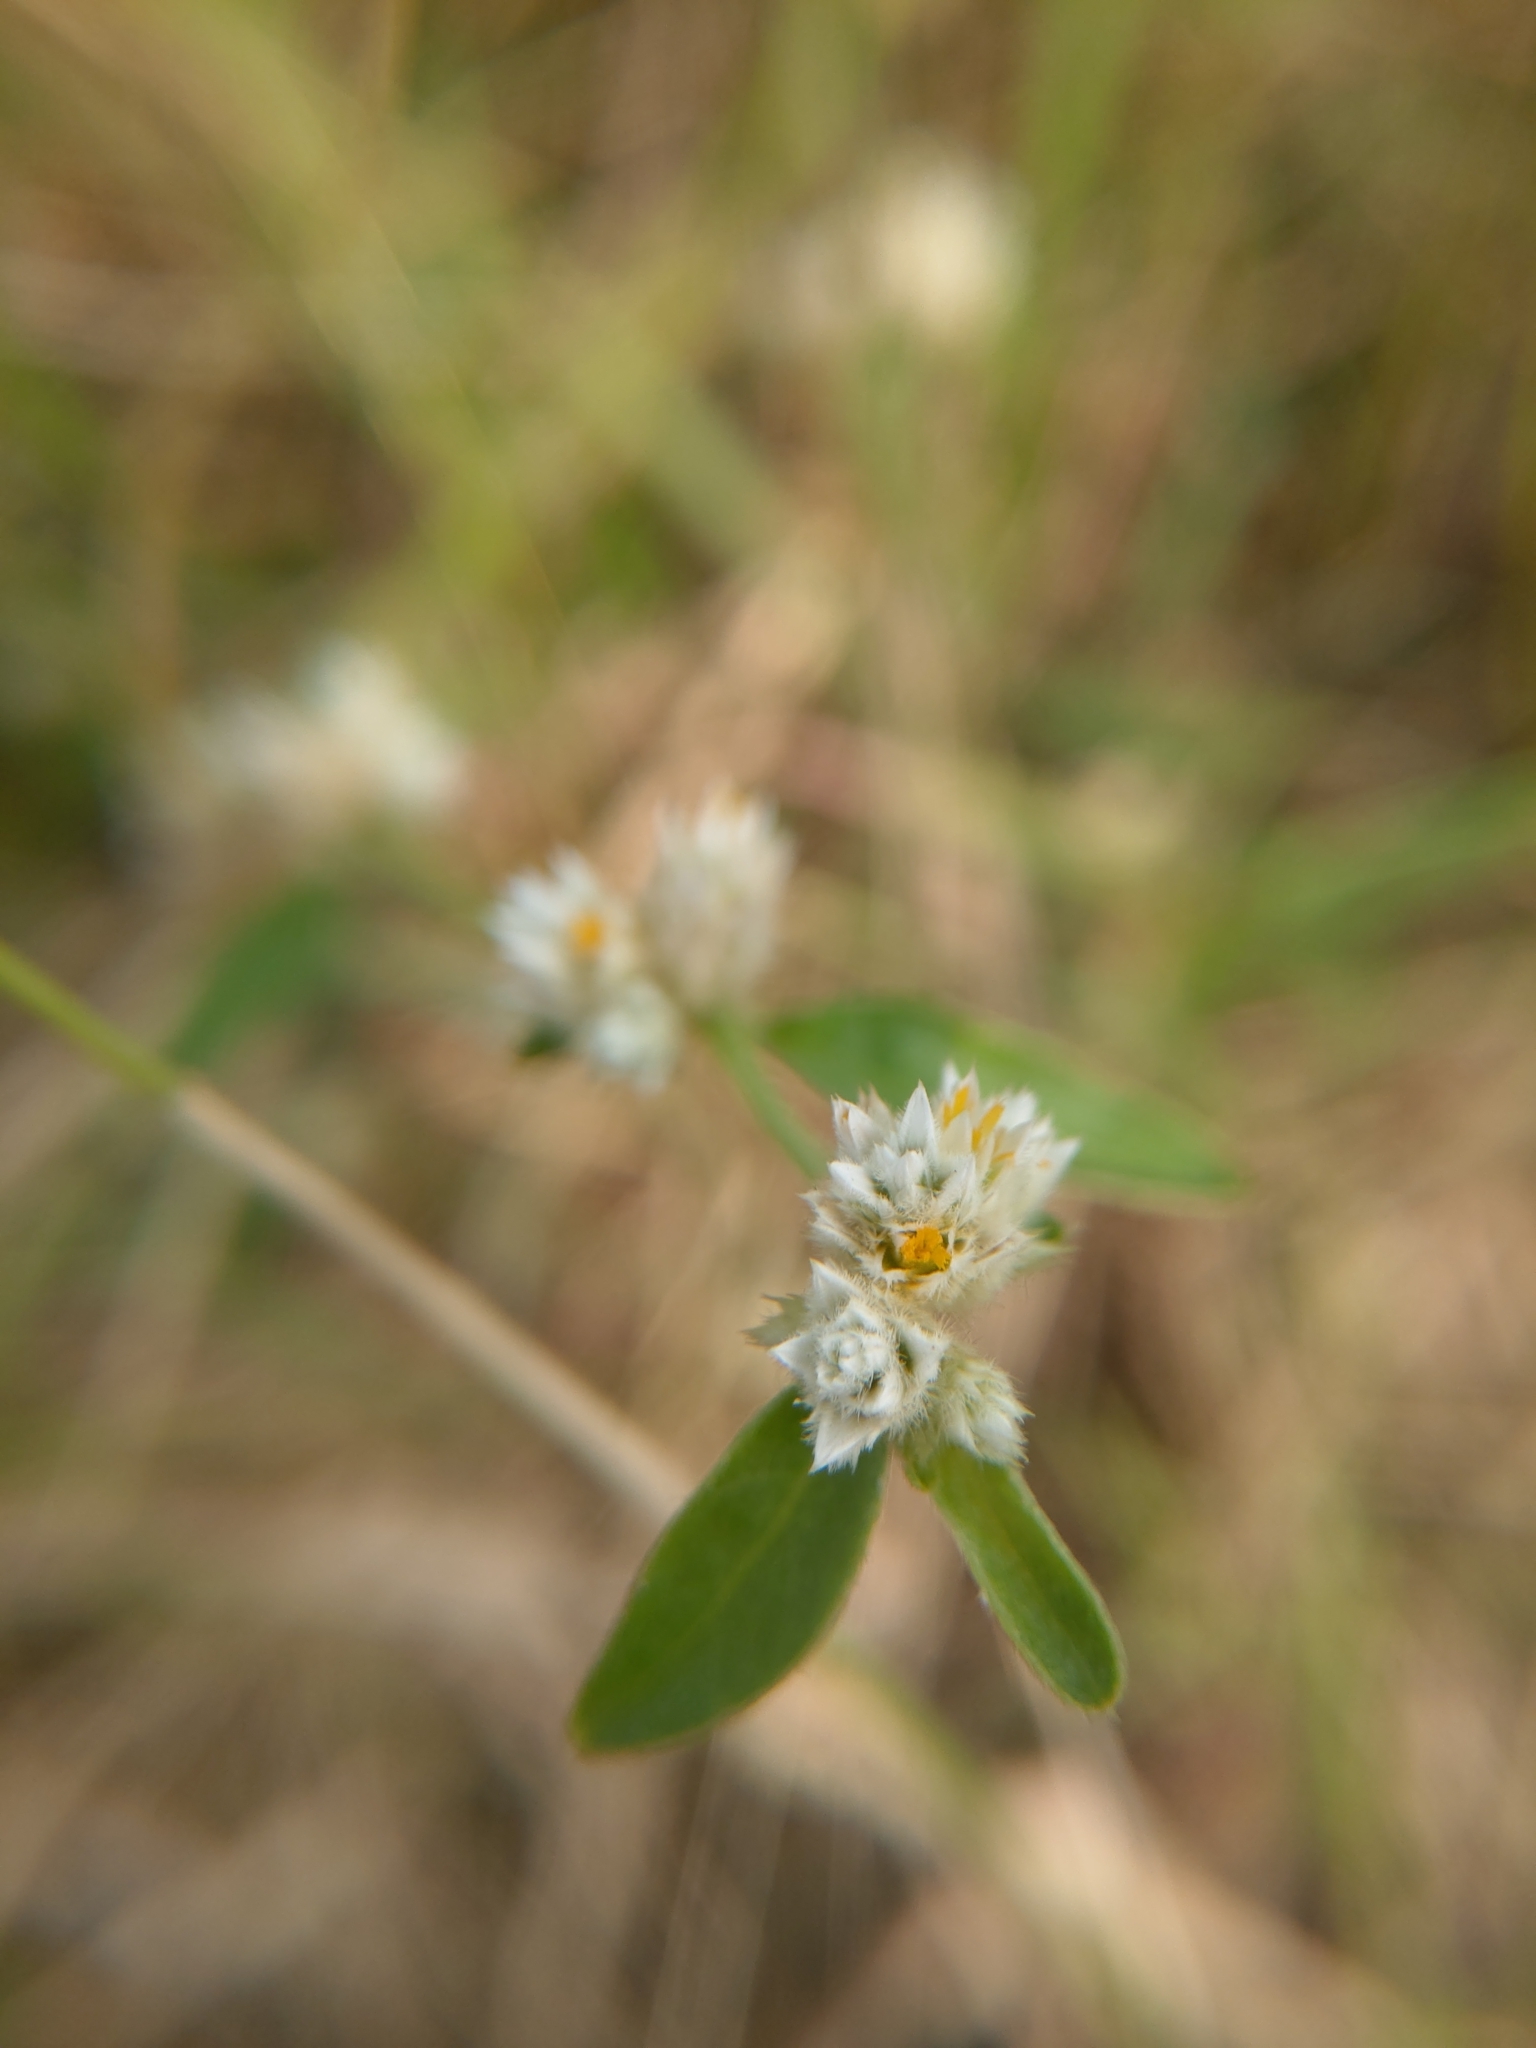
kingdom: Plantae
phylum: Tracheophyta
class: Magnoliopsida
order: Caryophyllales
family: Amaranthaceae
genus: Alternanthera
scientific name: Alternanthera bettzickiana
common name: Calico-plant
